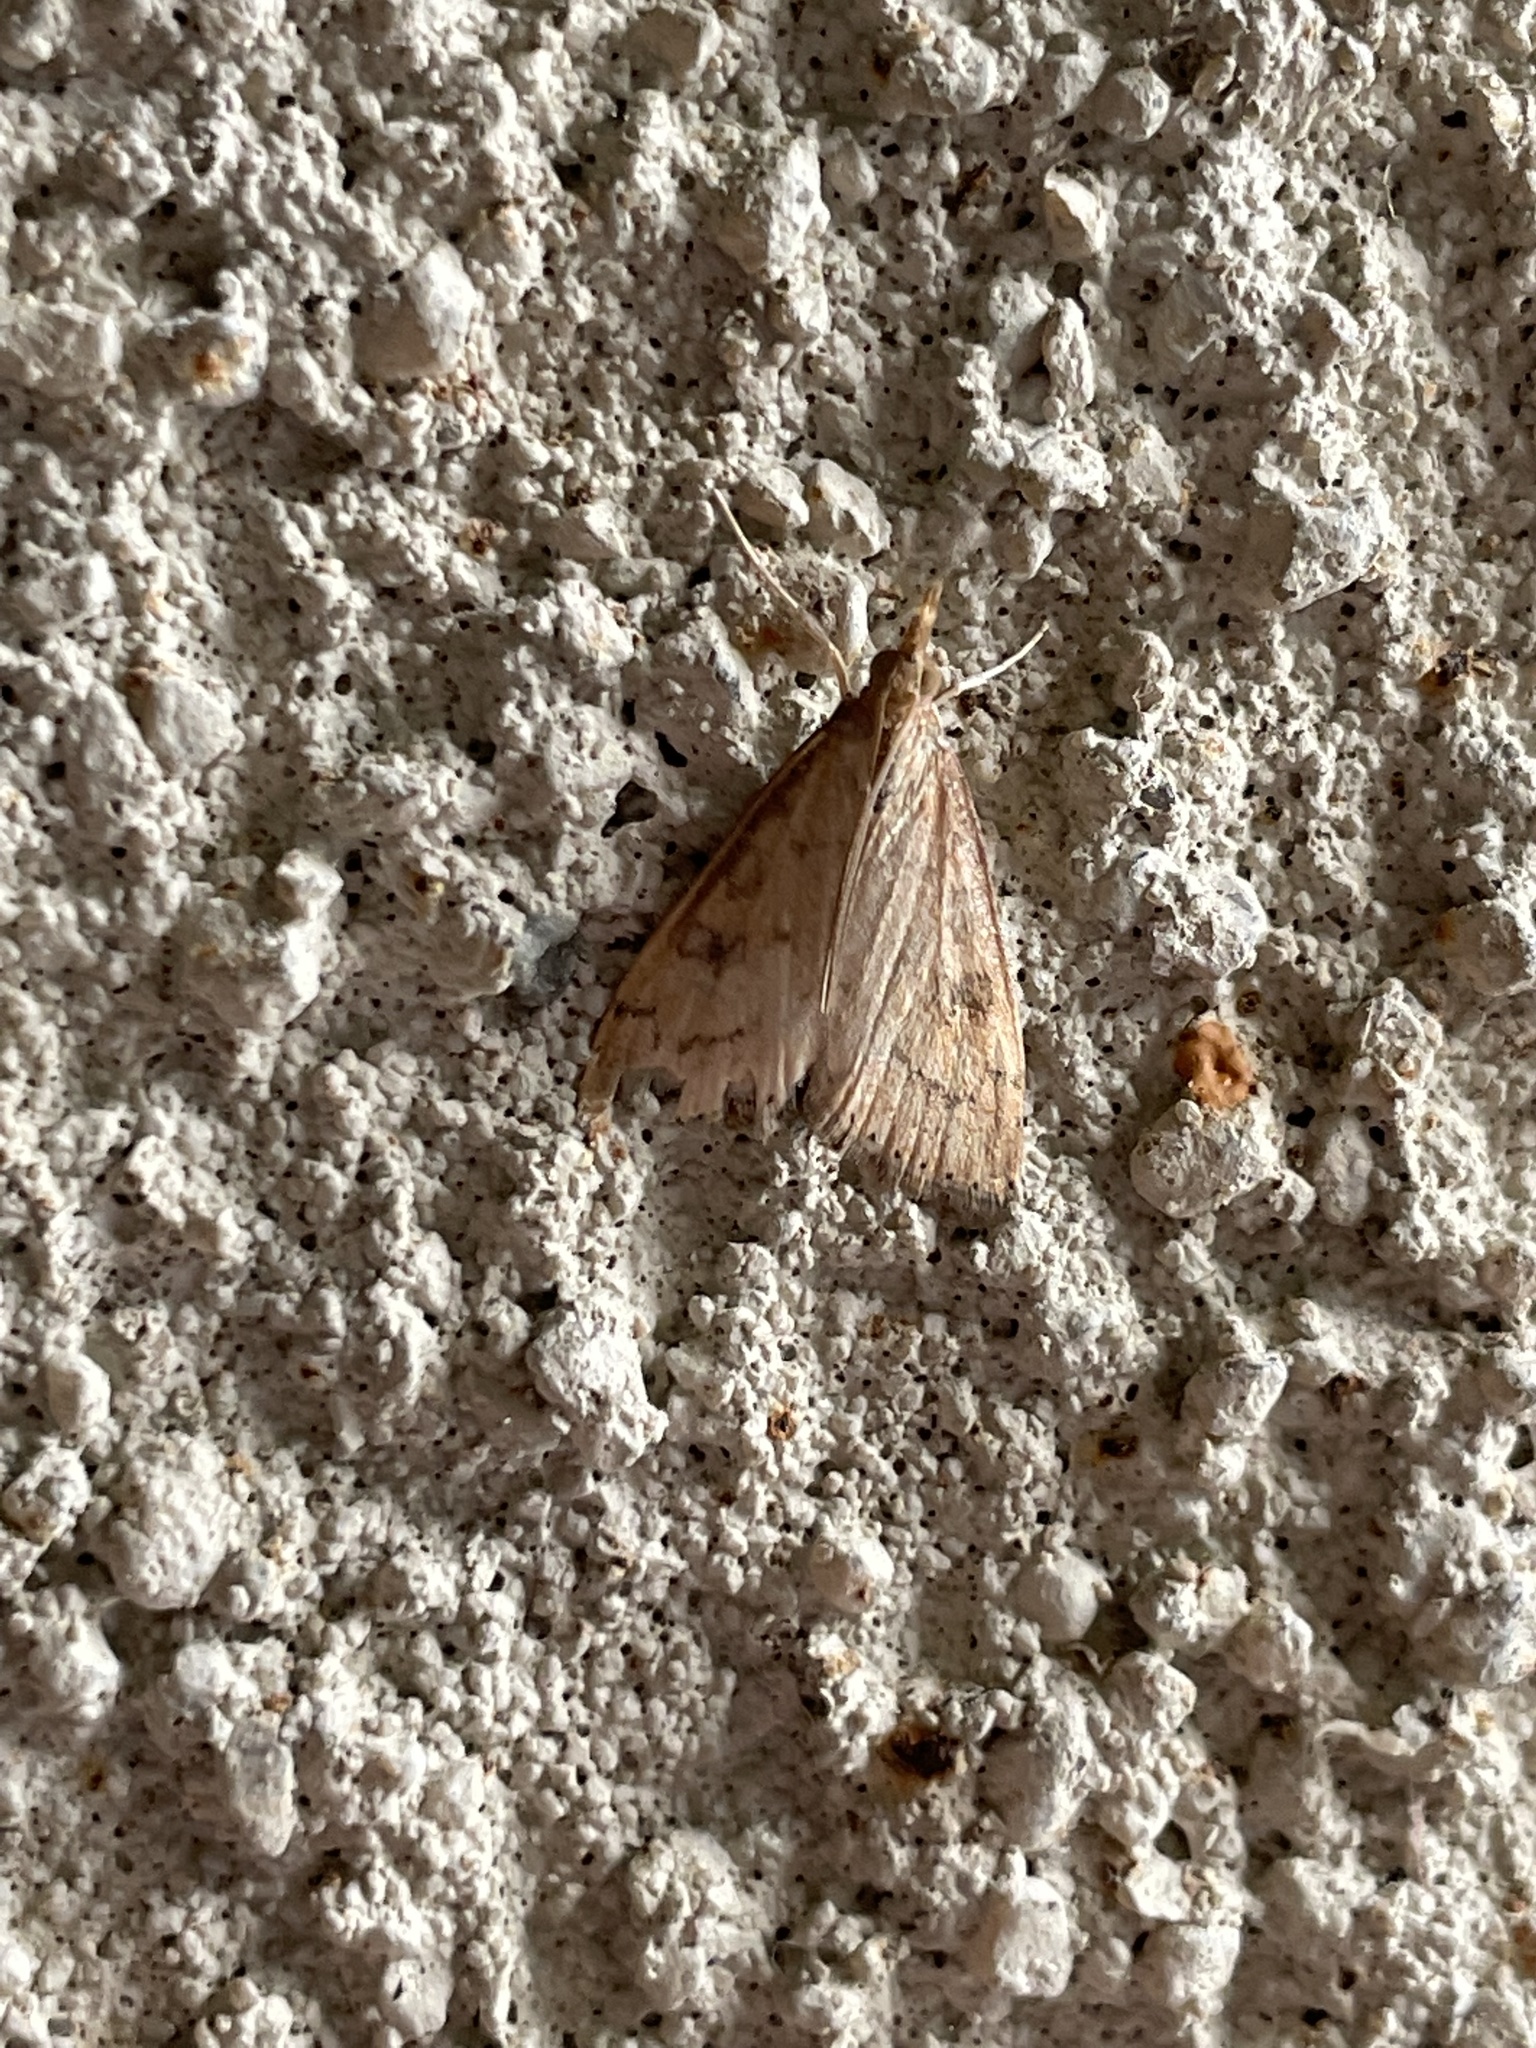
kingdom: Animalia
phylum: Arthropoda
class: Insecta
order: Lepidoptera
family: Crambidae
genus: Udea
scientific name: Udea rubigalis
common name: Celery leaftier moth
